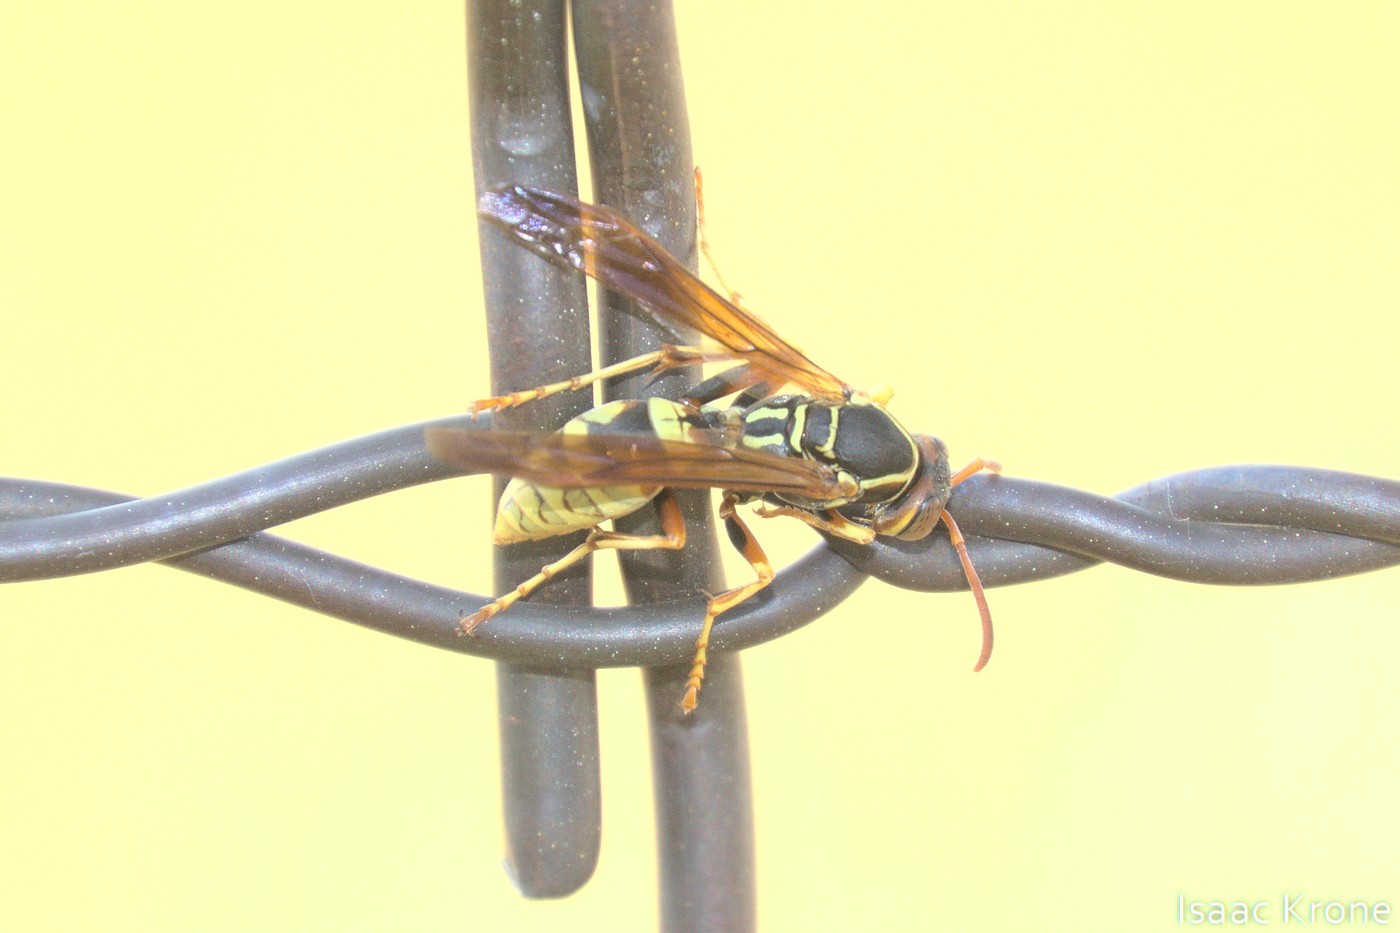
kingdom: Animalia
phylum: Arthropoda
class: Insecta
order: Hymenoptera
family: Eumenidae
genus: Polistes
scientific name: Polistes aurifer
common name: Paper wasp
